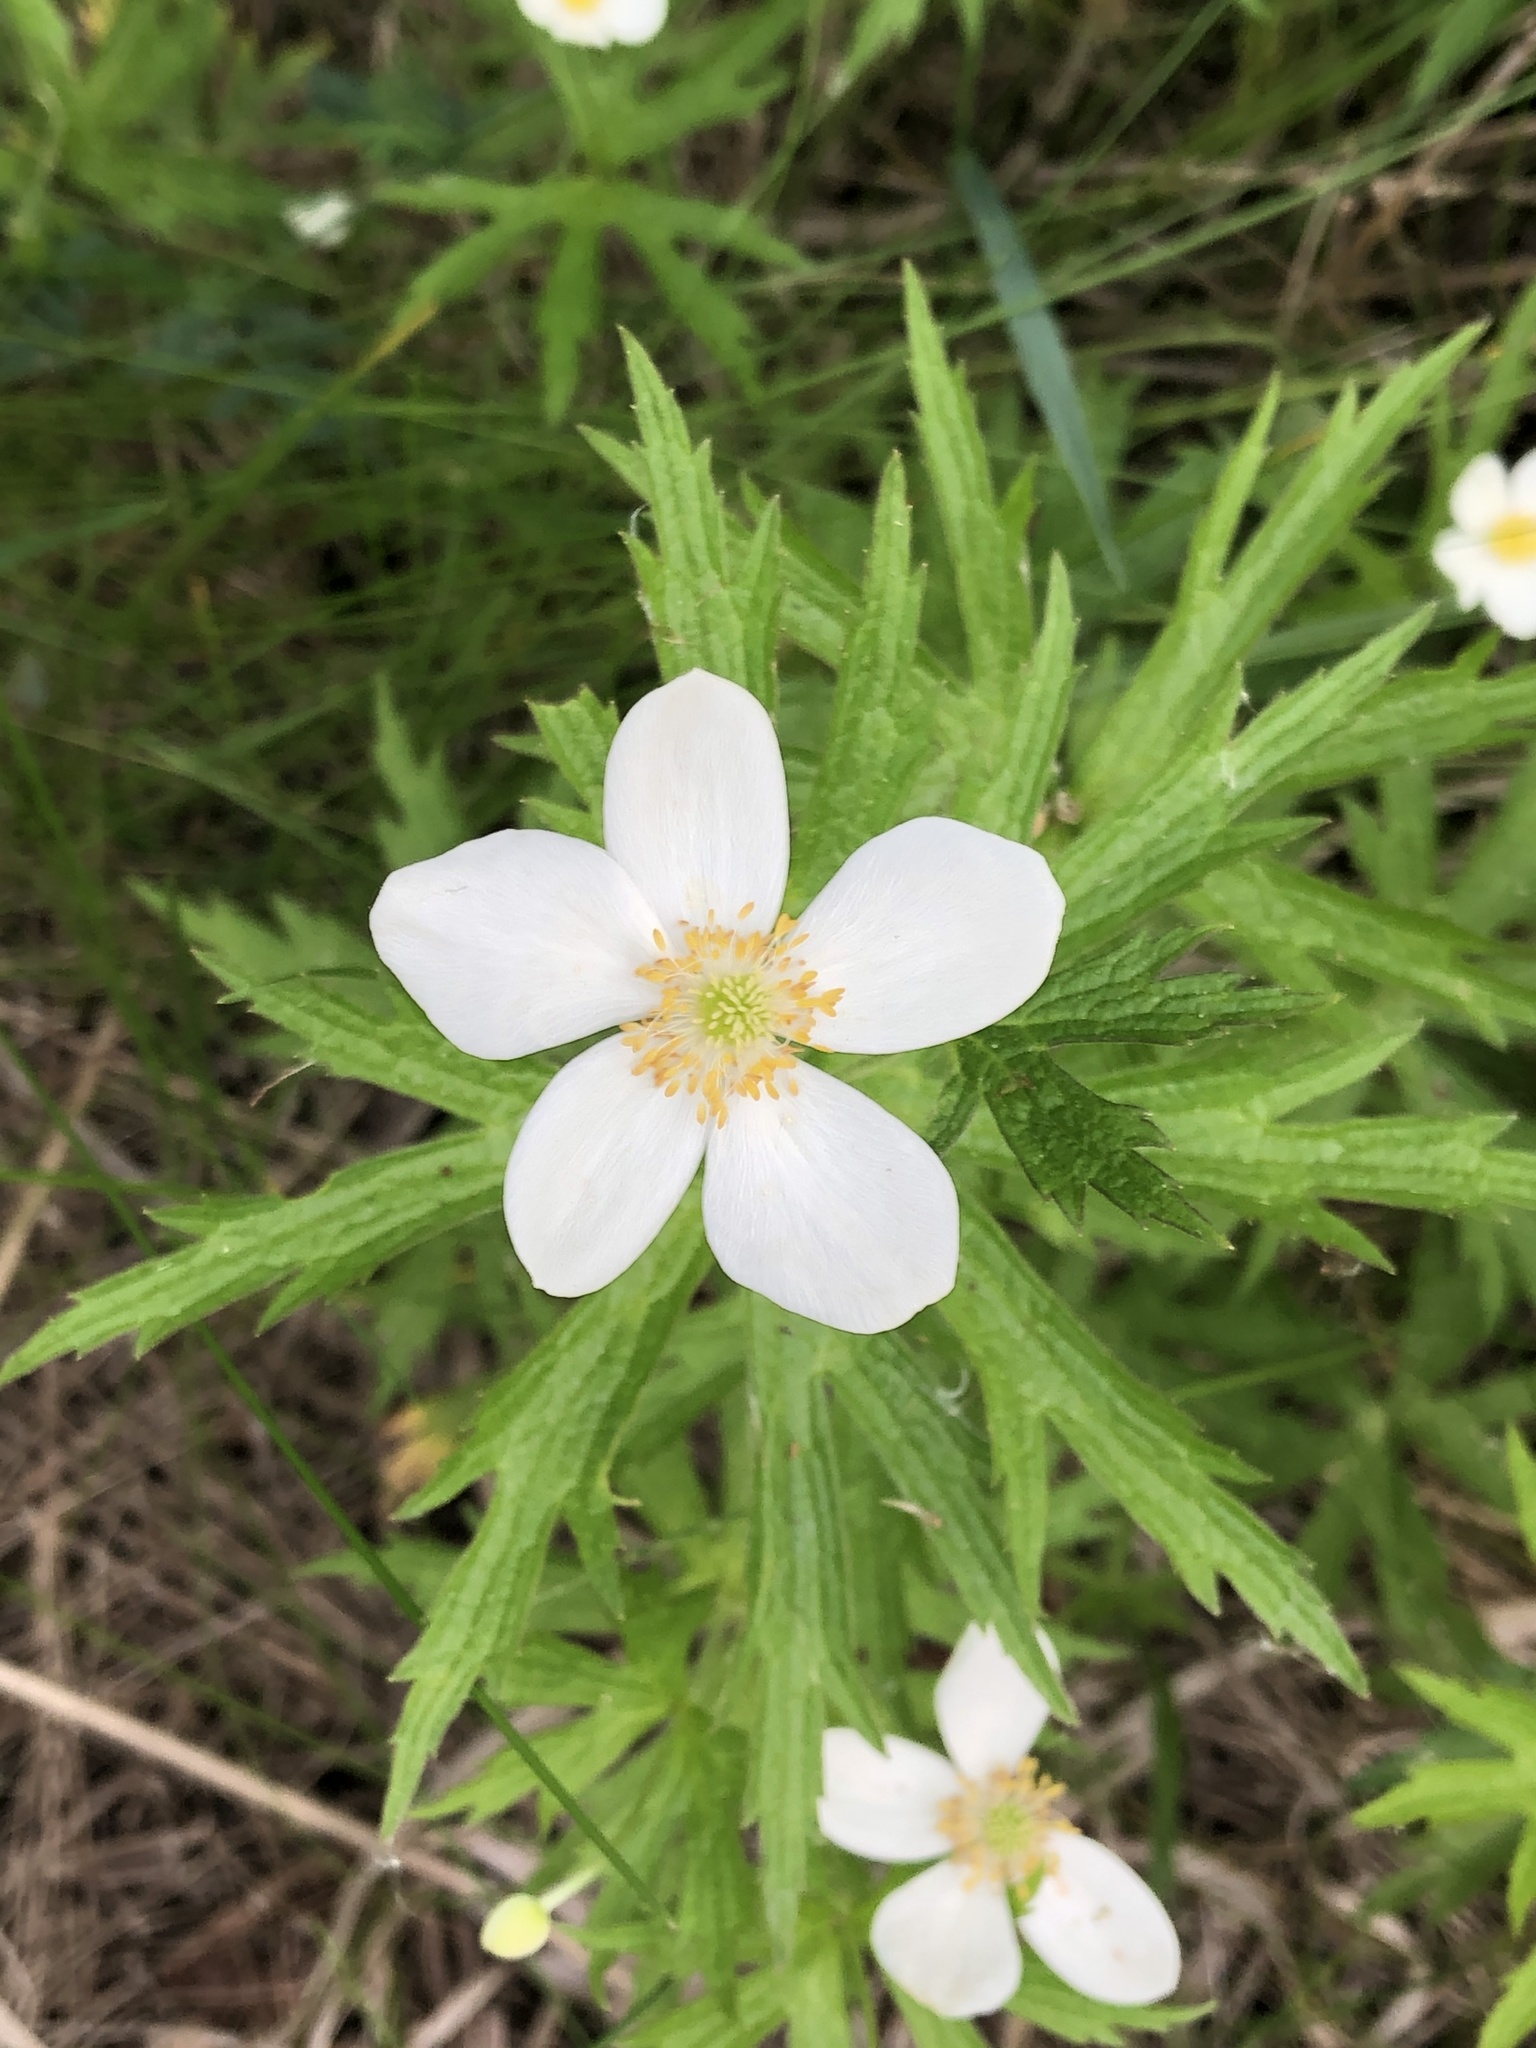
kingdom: Plantae
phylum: Tracheophyta
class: Magnoliopsida
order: Ranunculales
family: Ranunculaceae
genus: Anemonastrum
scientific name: Anemonastrum canadense
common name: Canada anemone
